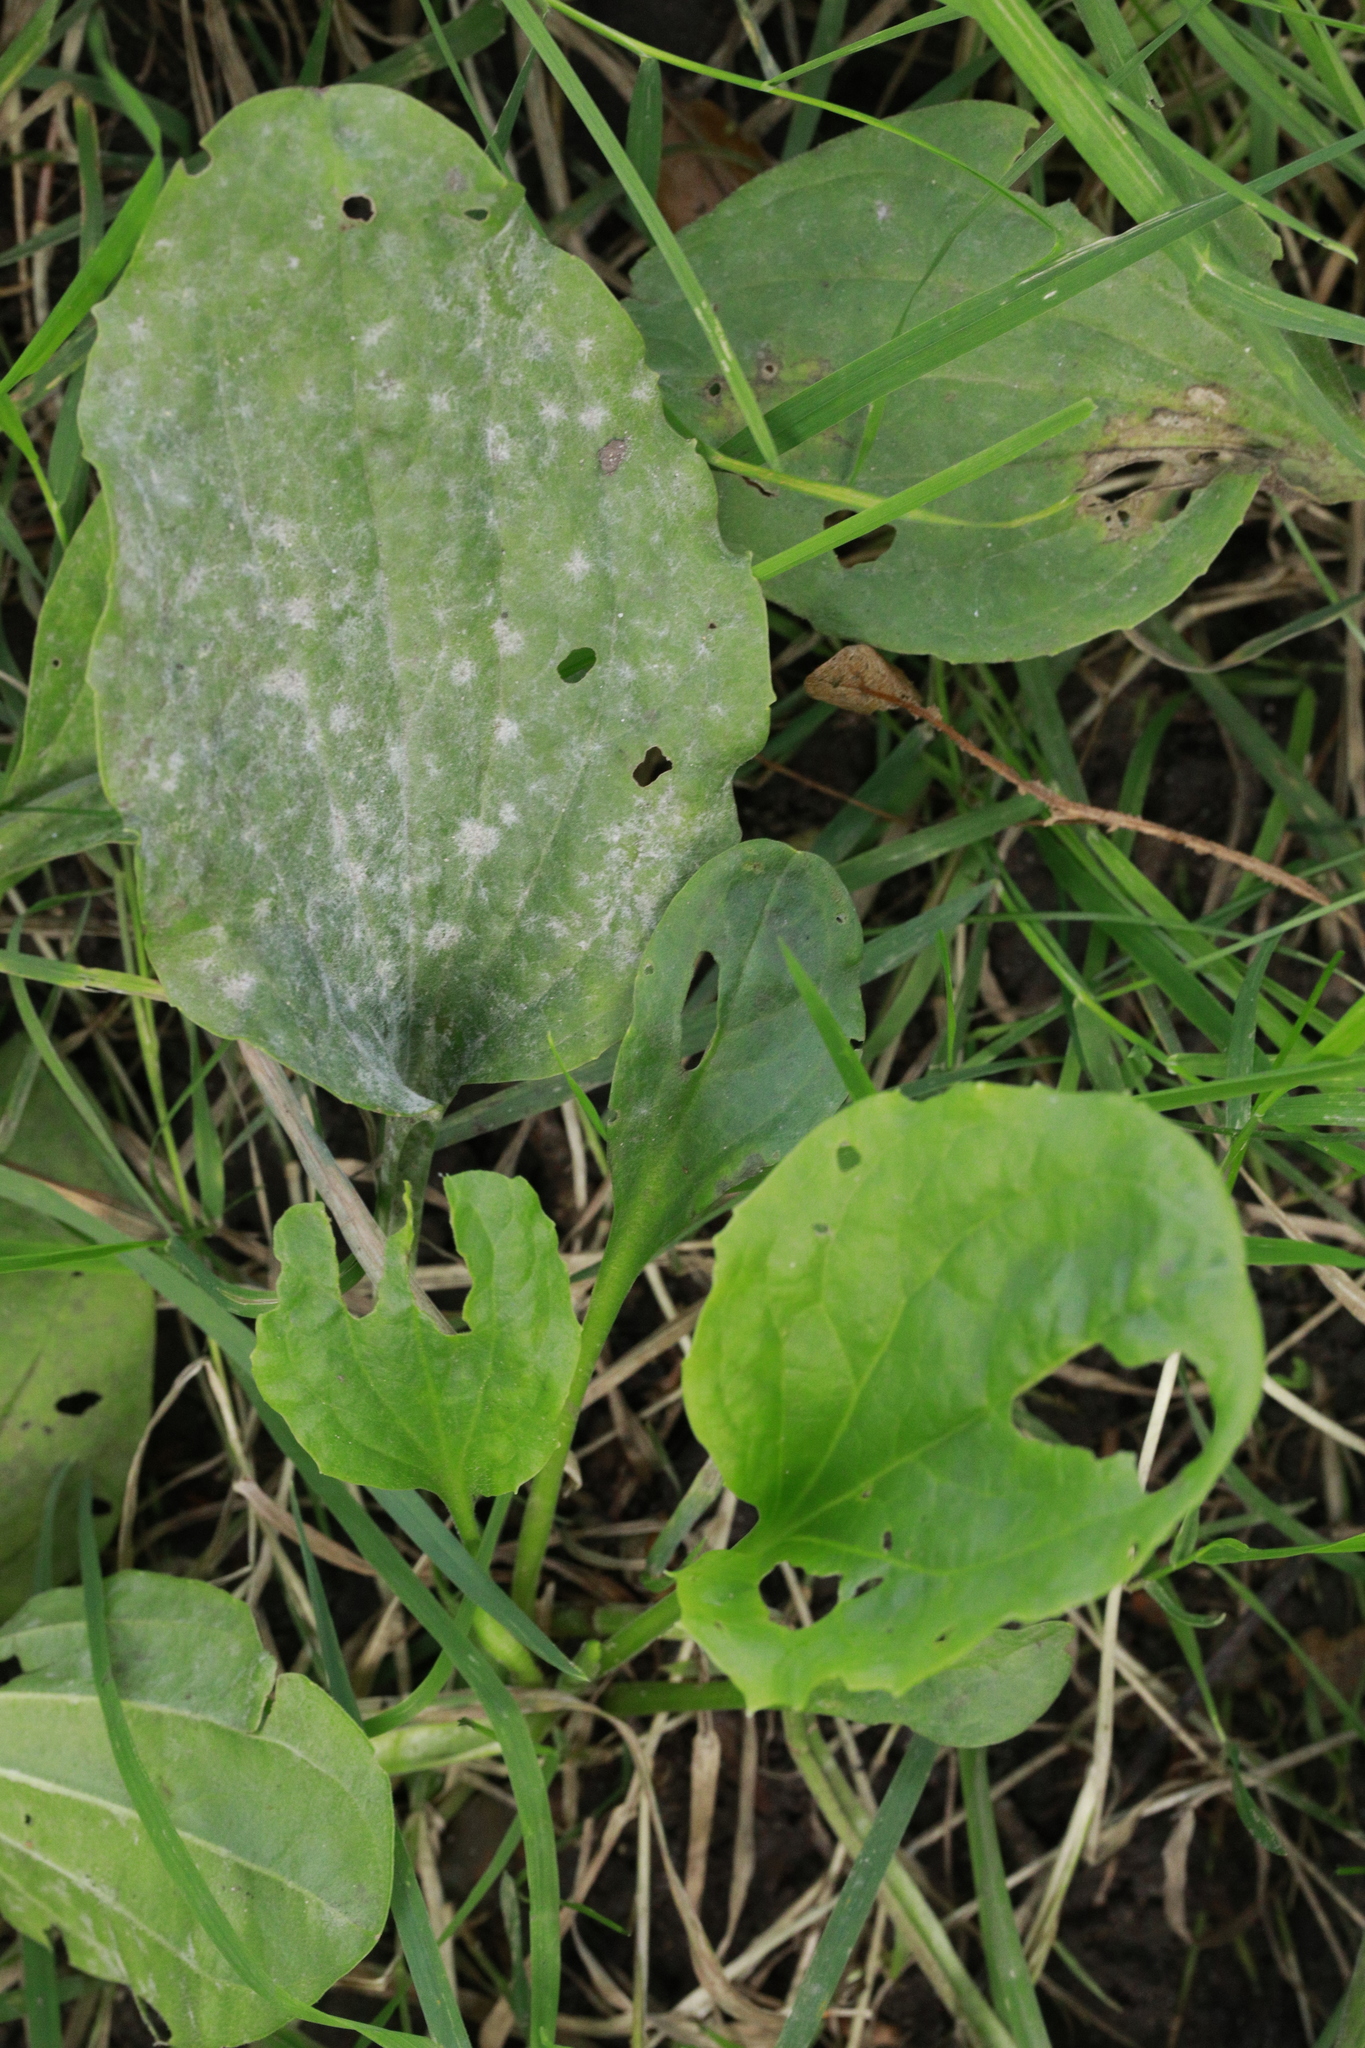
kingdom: Plantae
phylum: Tracheophyta
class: Magnoliopsida
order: Lamiales
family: Plantaginaceae
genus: Plantago
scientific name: Plantago major
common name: Common plantain
